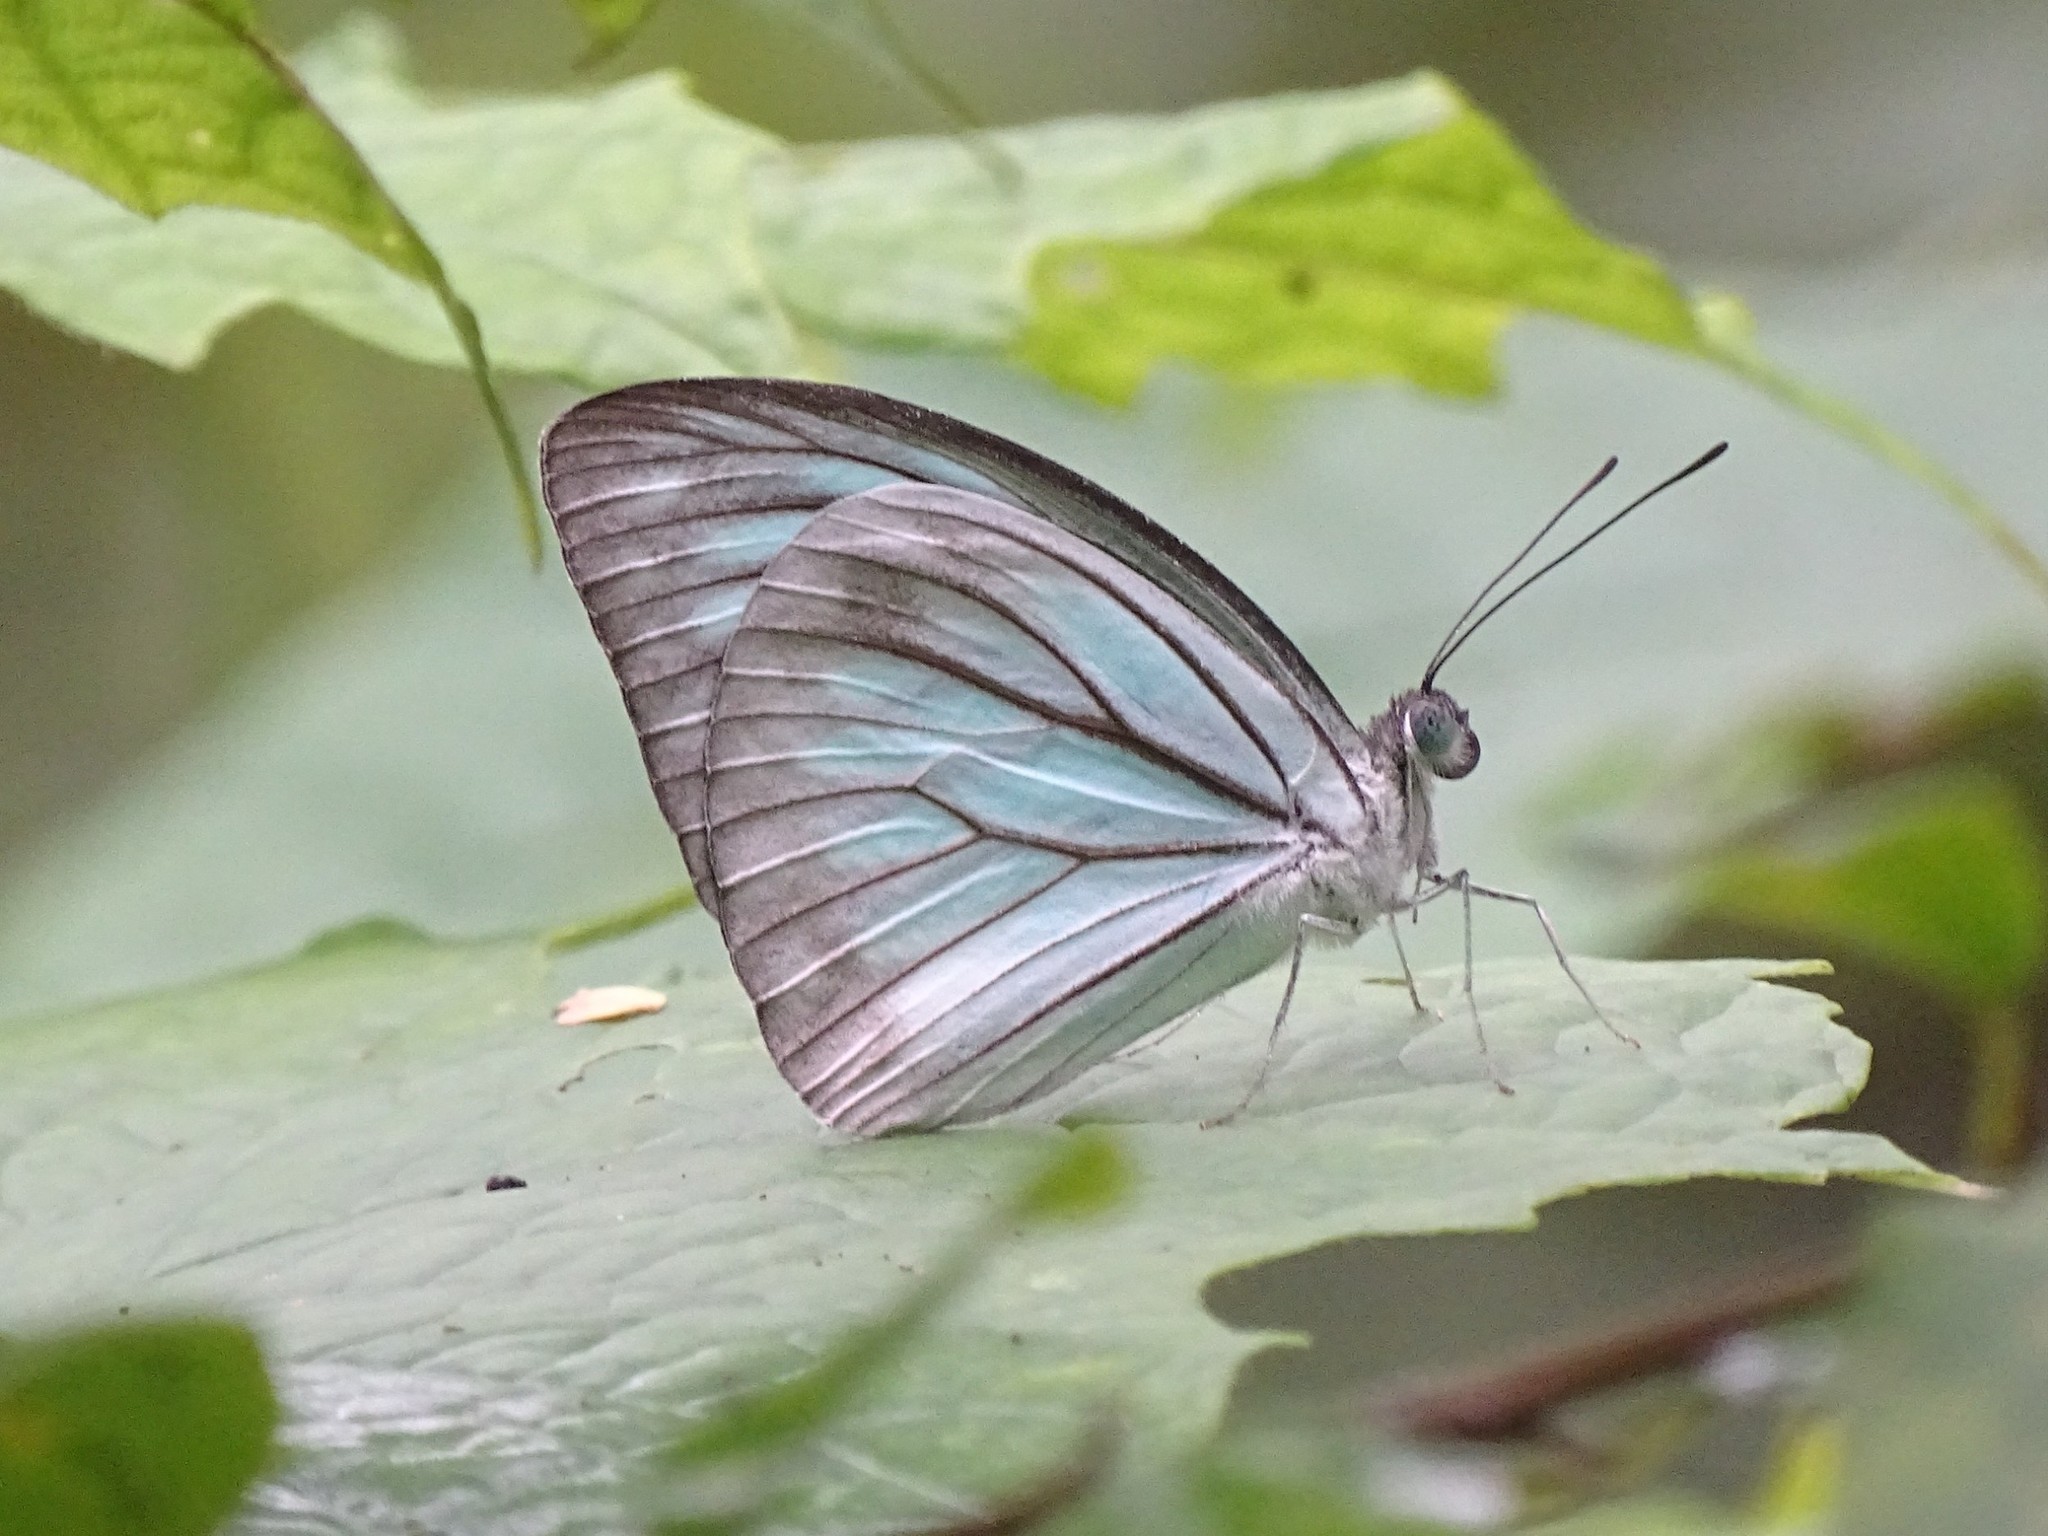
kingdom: Animalia
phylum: Arthropoda
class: Insecta
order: Lepidoptera
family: Pieridae
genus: Pareronia
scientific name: Pareronia hippia
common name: Indian wanderer
